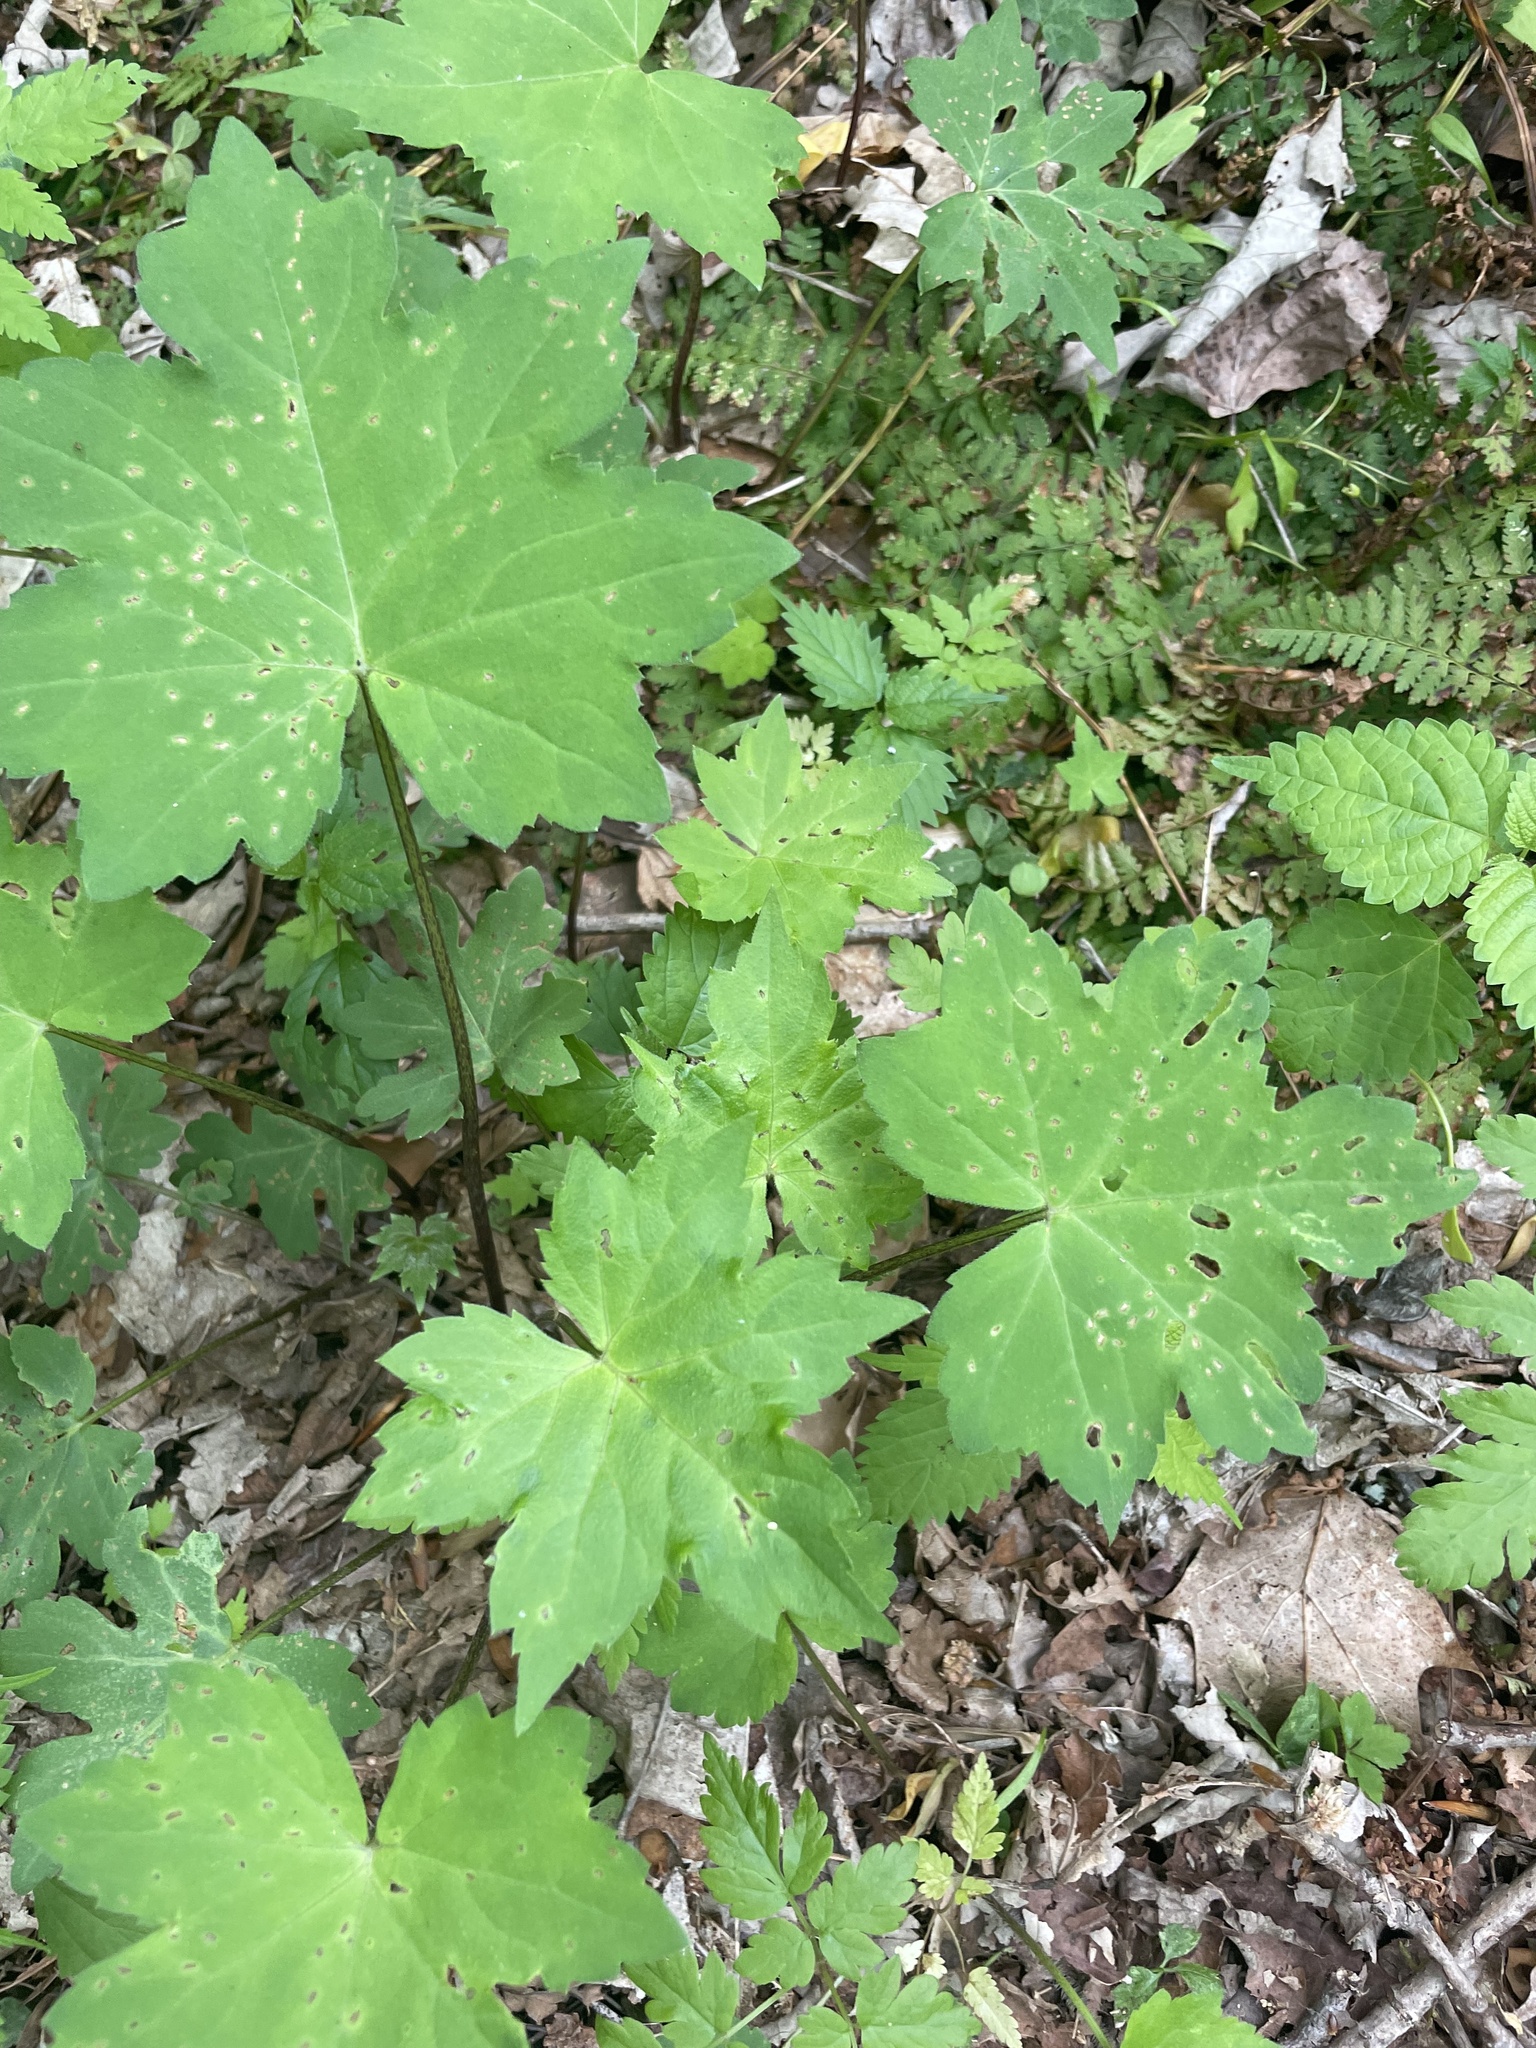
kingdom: Plantae
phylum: Tracheophyta
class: Magnoliopsida
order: Boraginales
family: Hydrophyllaceae
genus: Hydrophyllum
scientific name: Hydrophyllum canadense
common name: Canada waterleaf
